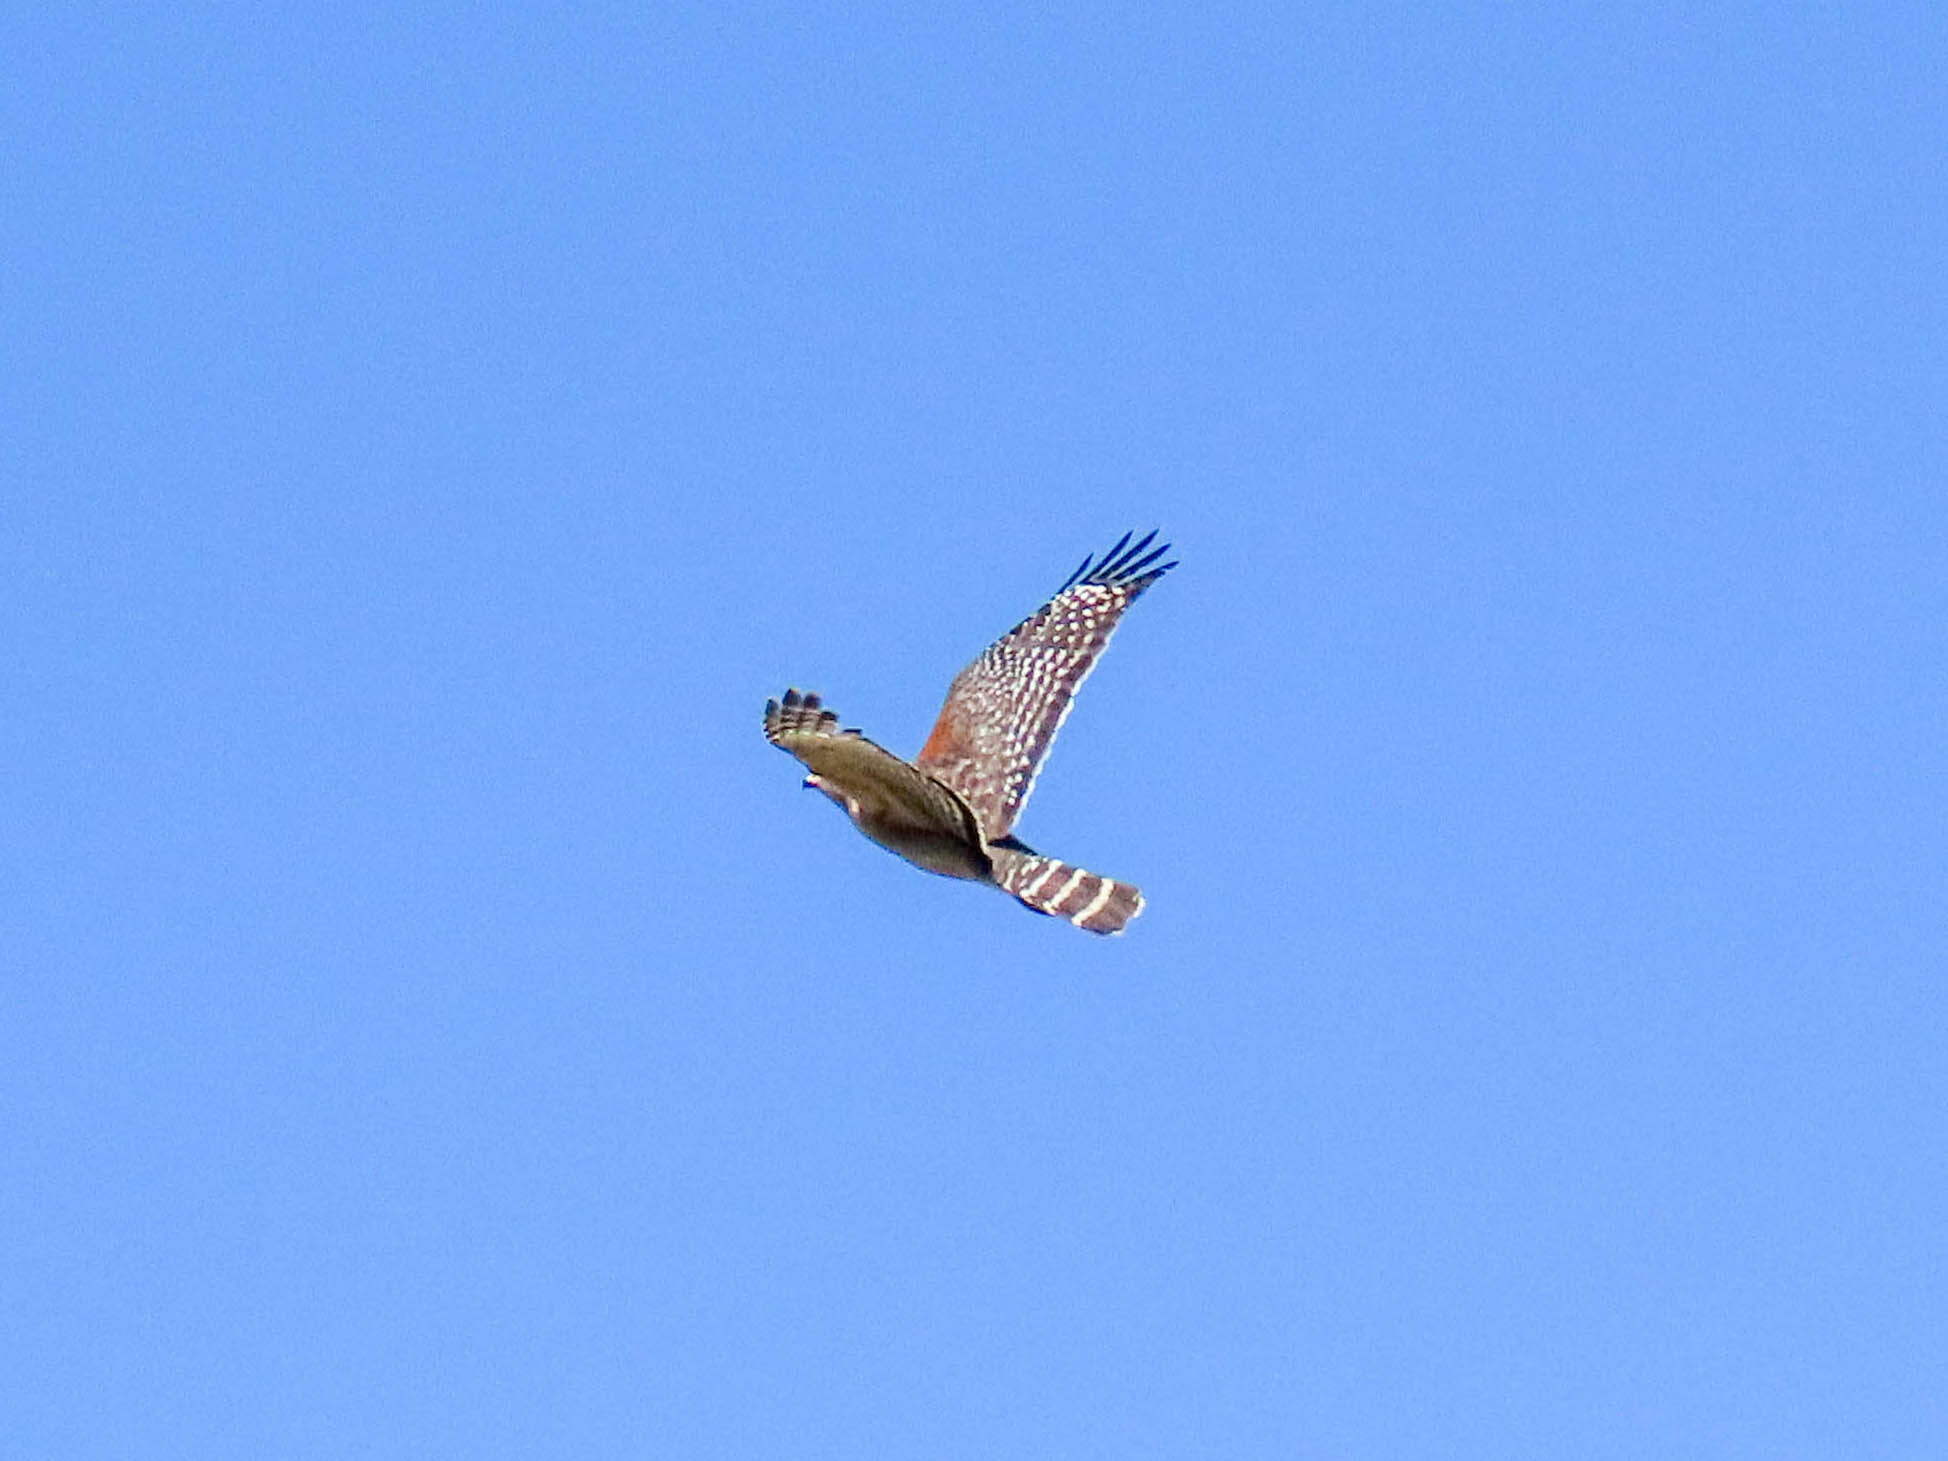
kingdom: Animalia
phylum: Chordata
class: Aves
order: Accipitriformes
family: Accipitridae
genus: Buteo
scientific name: Buteo lineatus
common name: Red-shouldered hawk
